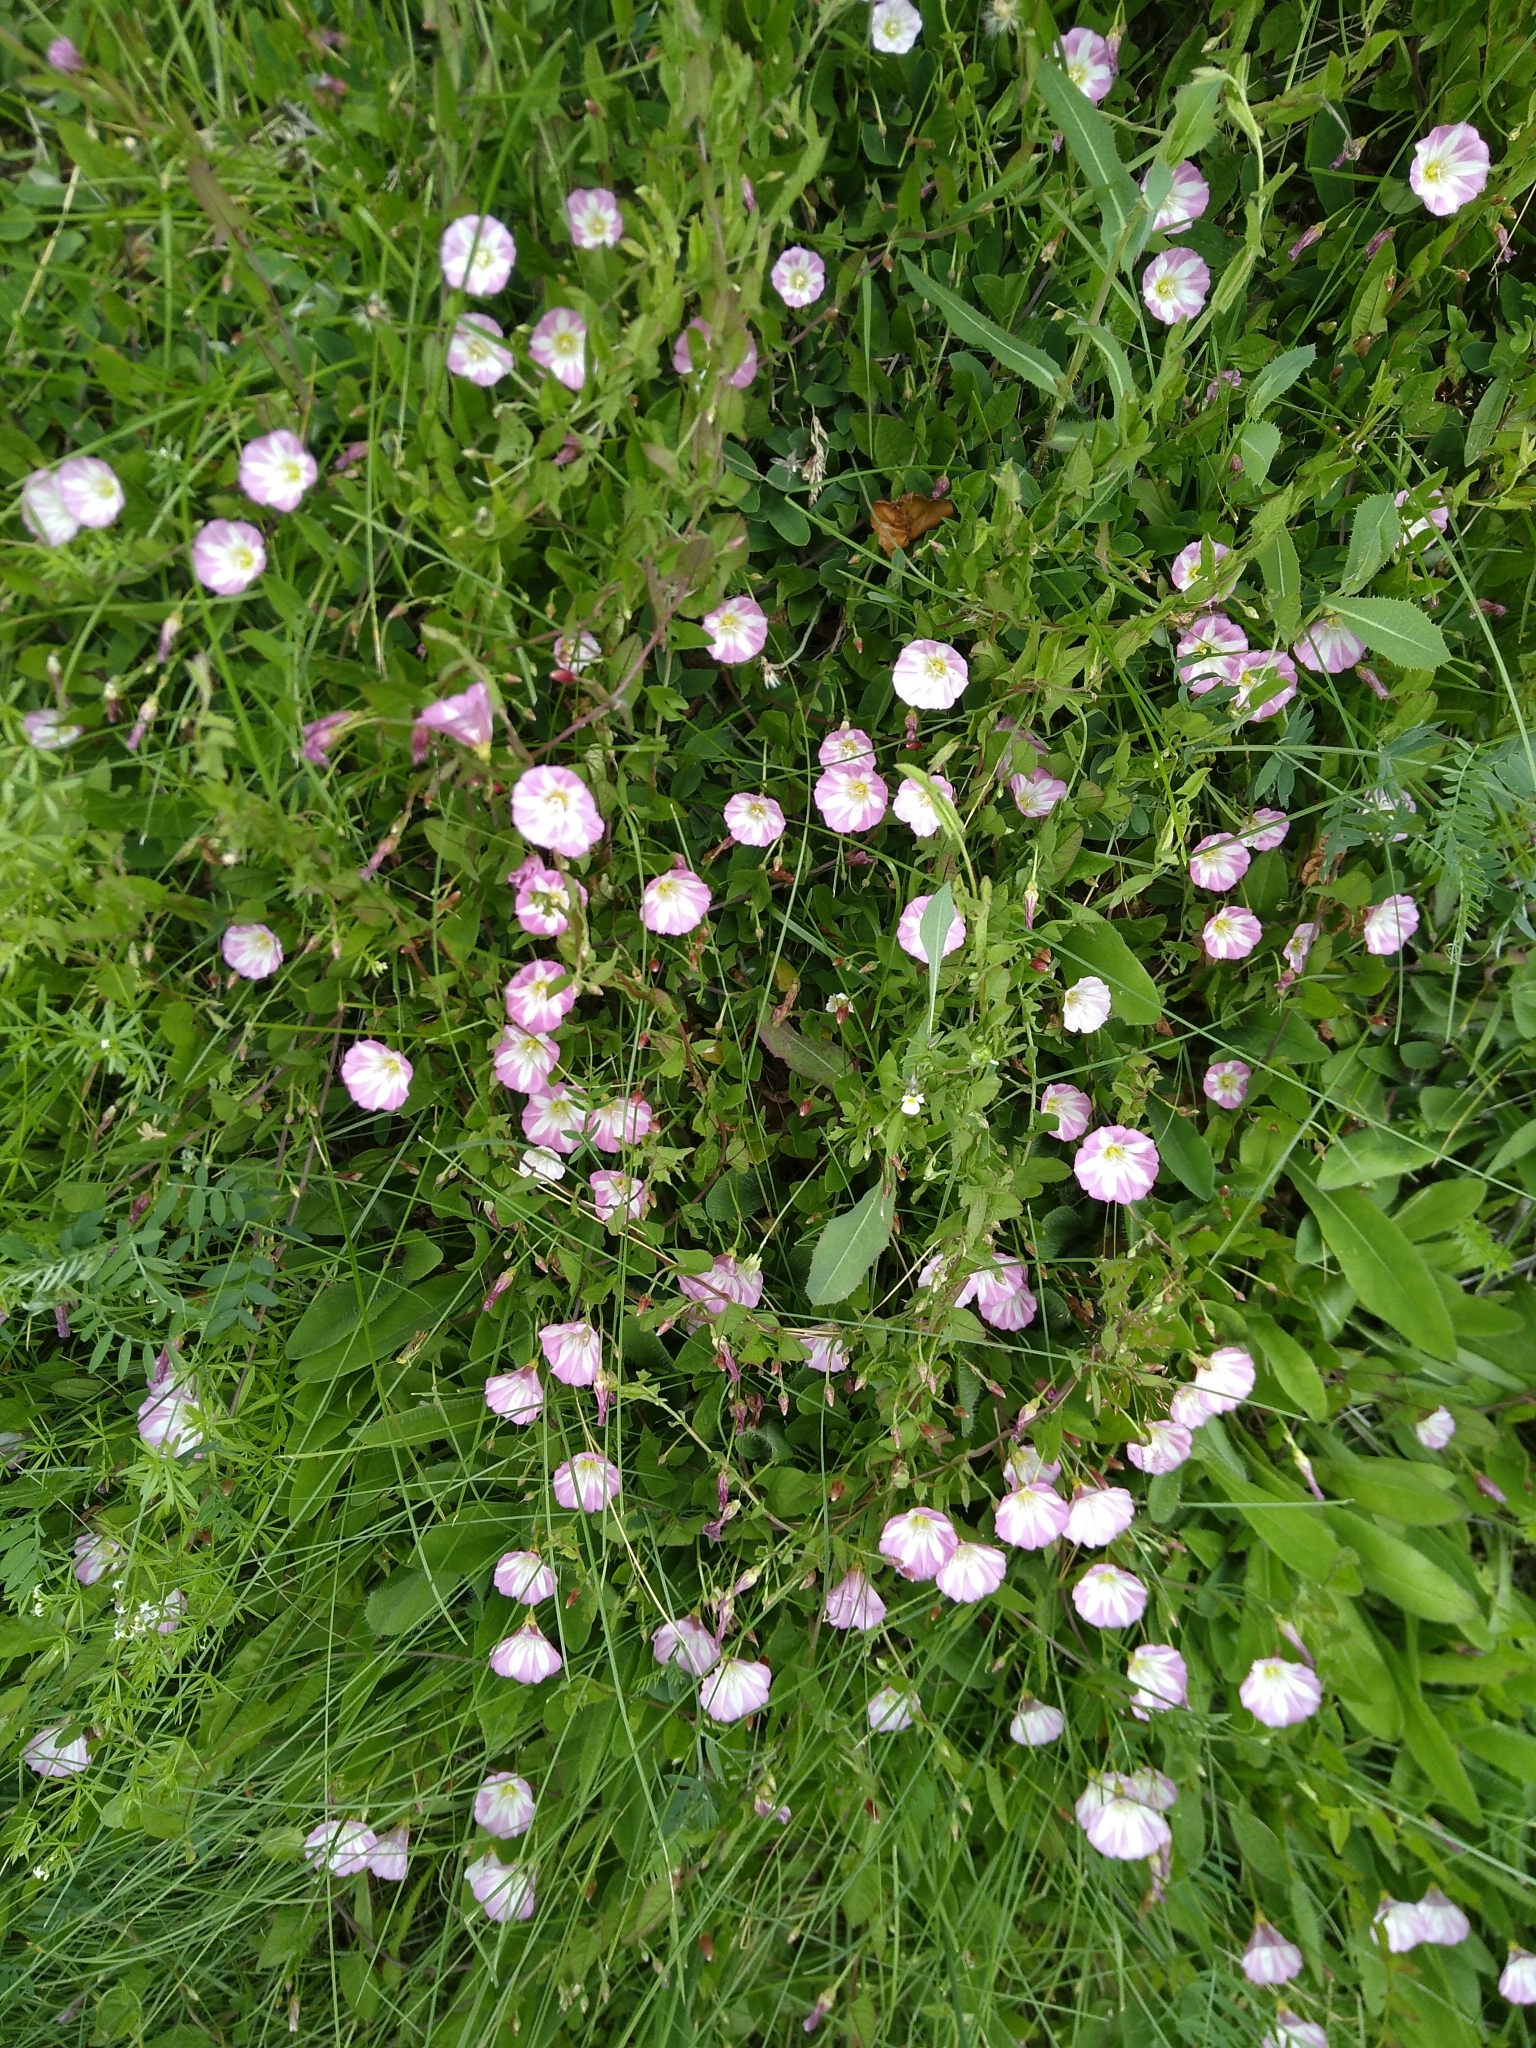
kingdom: Plantae
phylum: Tracheophyta
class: Magnoliopsida
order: Solanales
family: Convolvulaceae
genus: Convolvulus
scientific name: Convolvulus arvensis
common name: Field bindweed
